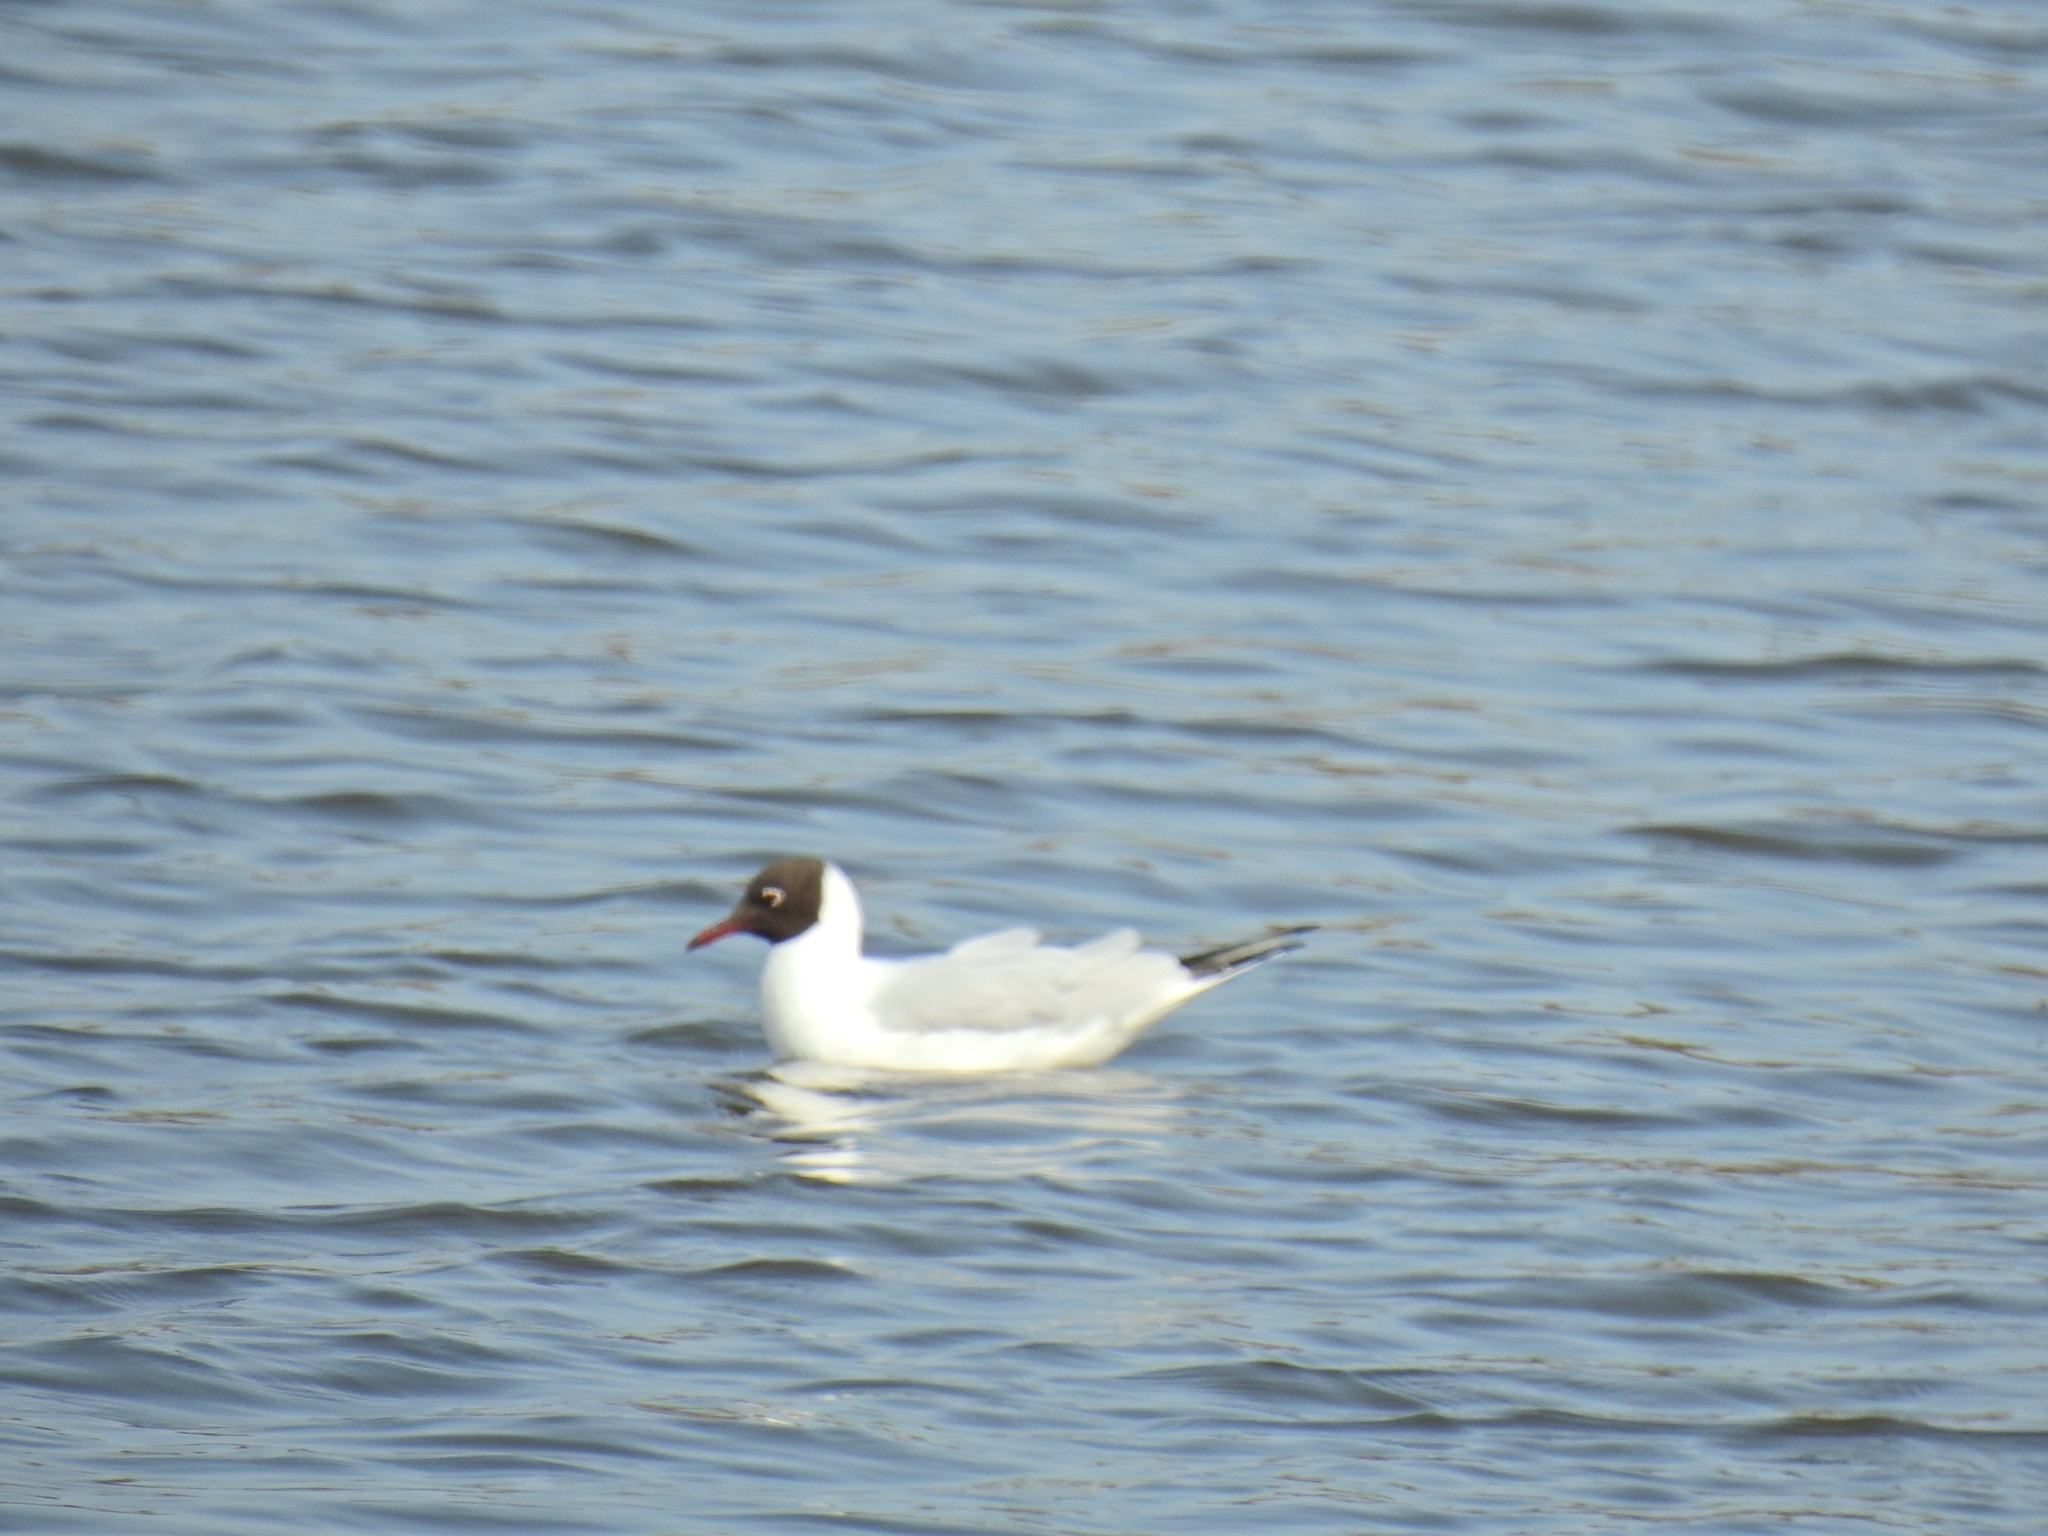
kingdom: Animalia
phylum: Chordata
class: Aves
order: Charadriiformes
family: Laridae
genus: Chroicocephalus
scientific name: Chroicocephalus ridibundus
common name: Black-headed gull
